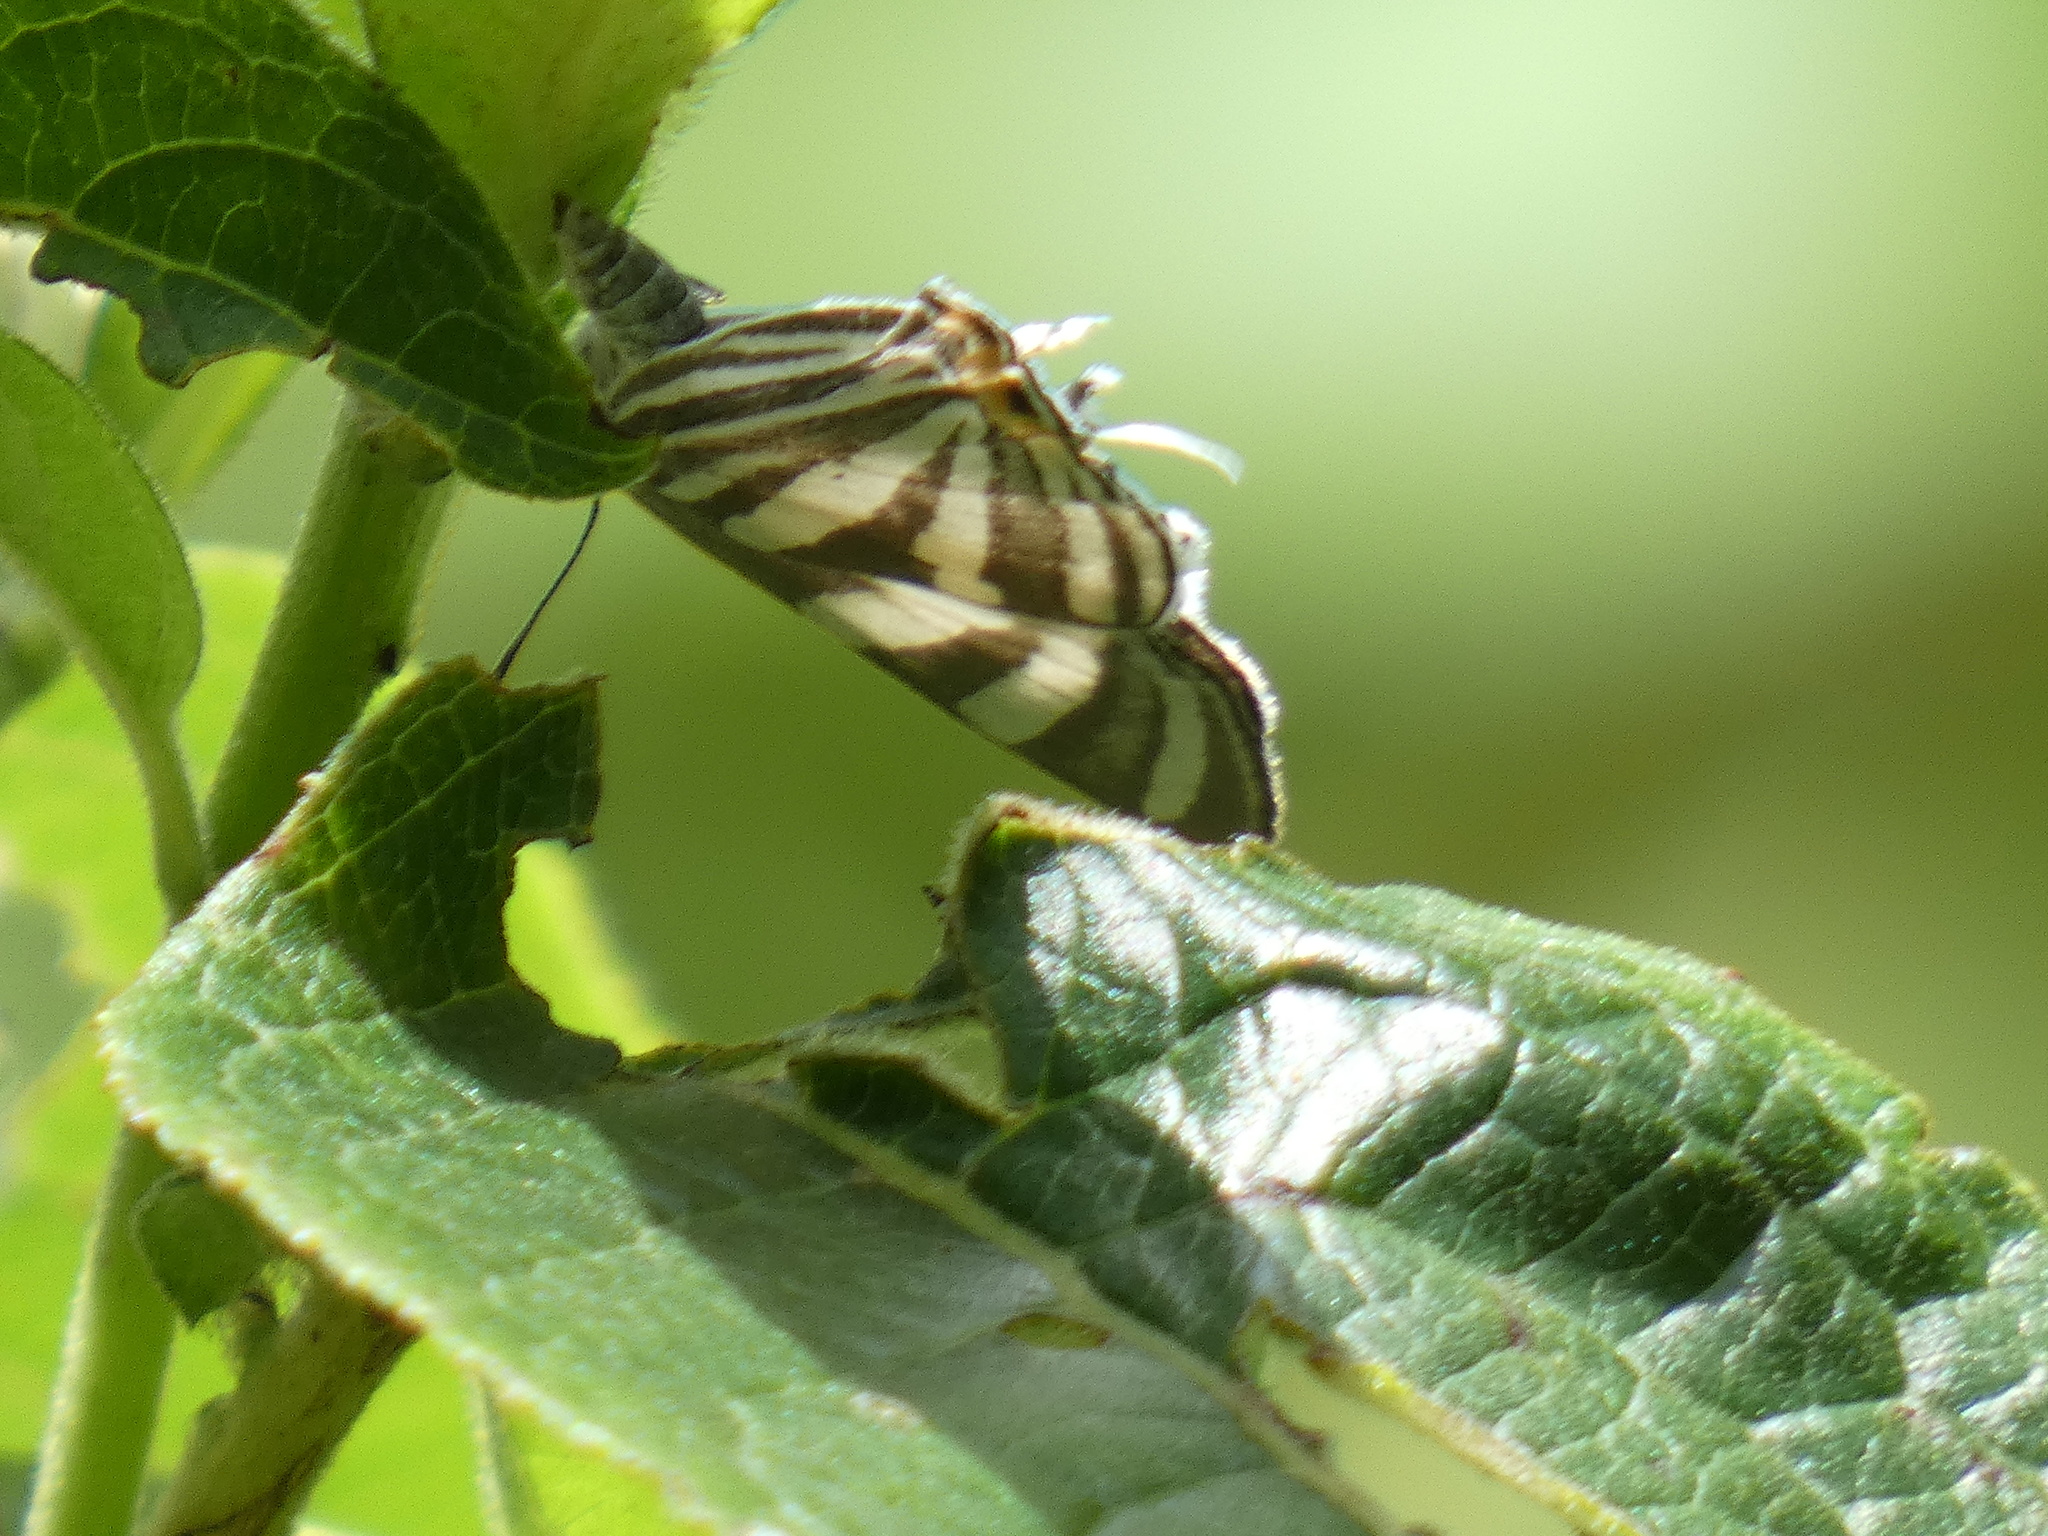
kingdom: Animalia
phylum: Arthropoda
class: Insecta
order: Lepidoptera
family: Lycaenidae
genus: Laothus
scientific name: Laothus
